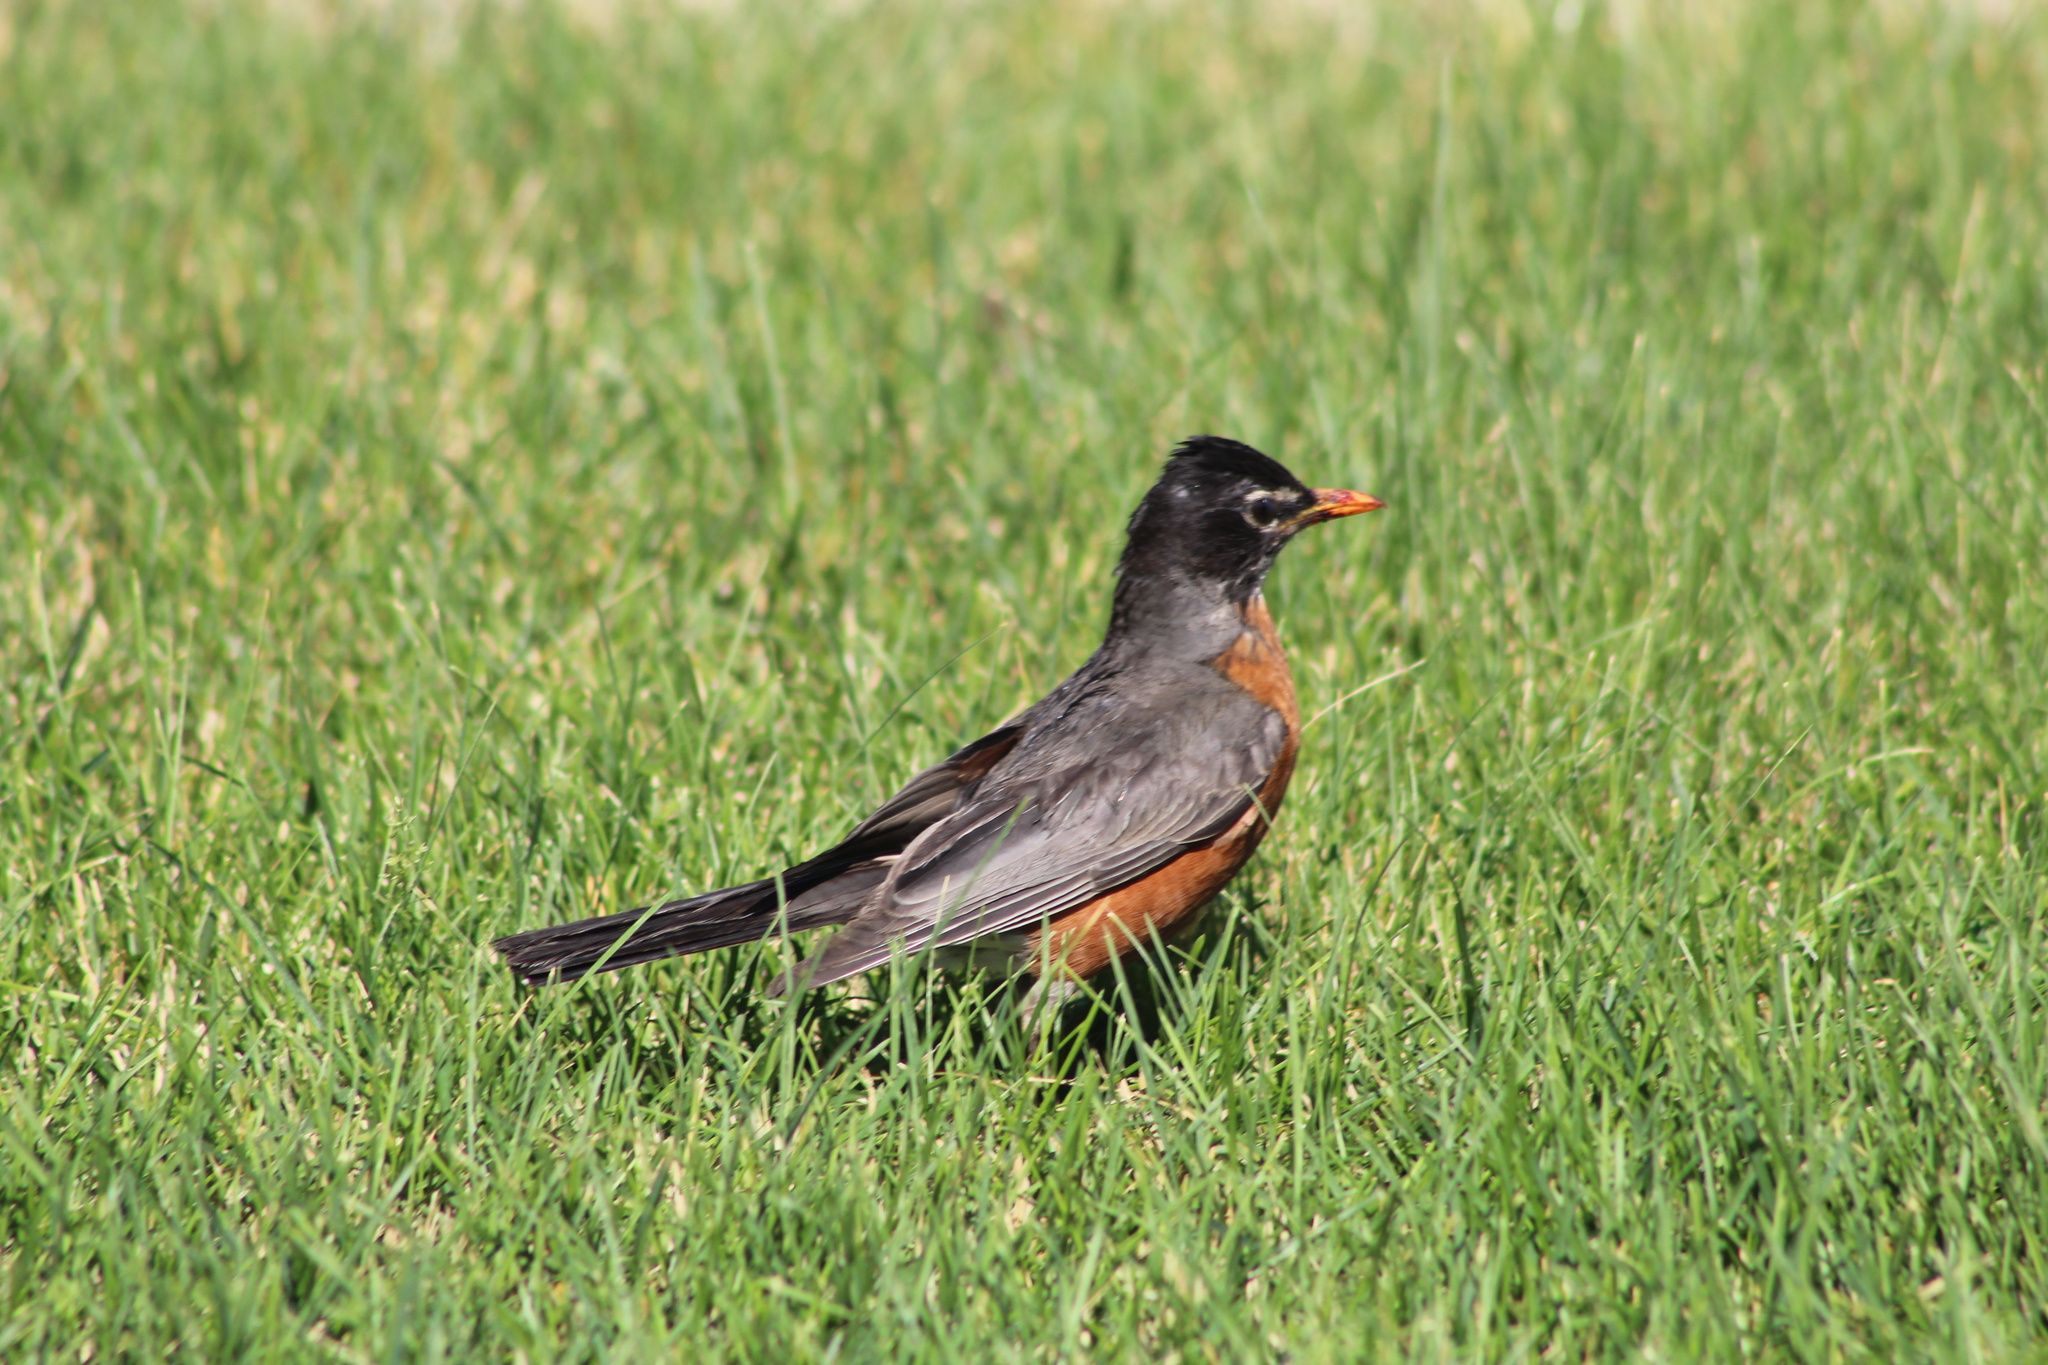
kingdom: Animalia
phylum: Chordata
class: Aves
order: Passeriformes
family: Turdidae
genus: Turdus
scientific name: Turdus migratorius
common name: American robin
